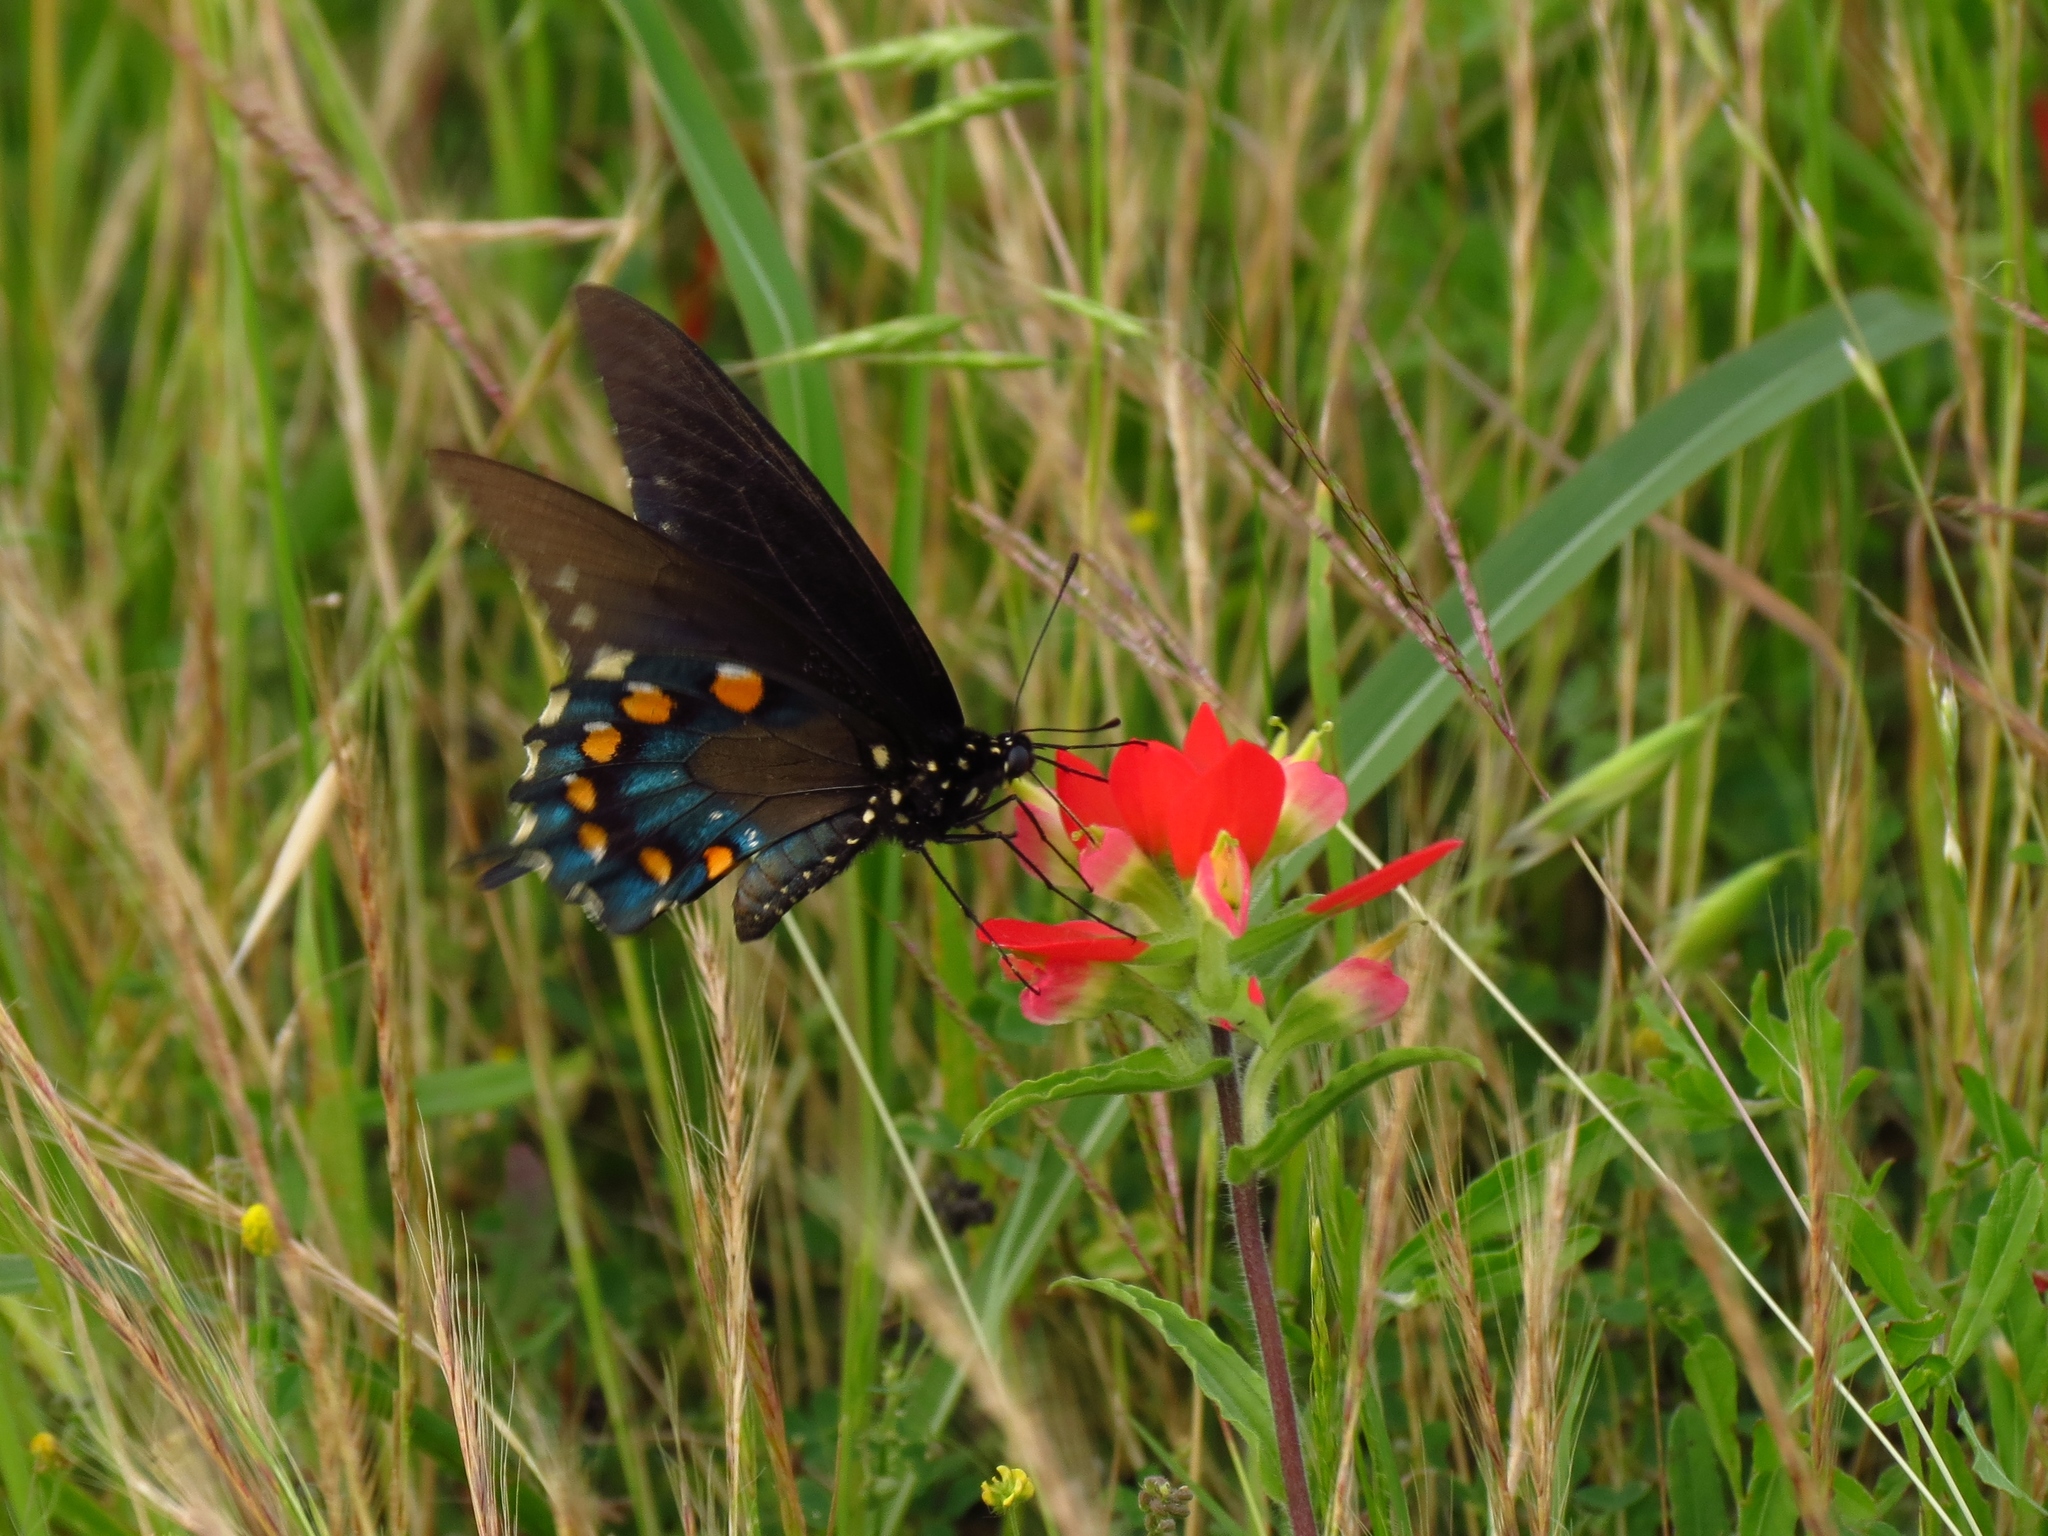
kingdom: Animalia
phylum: Arthropoda
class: Insecta
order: Lepidoptera
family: Papilionidae
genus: Battus
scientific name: Battus philenor
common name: Pipevine swallowtail
